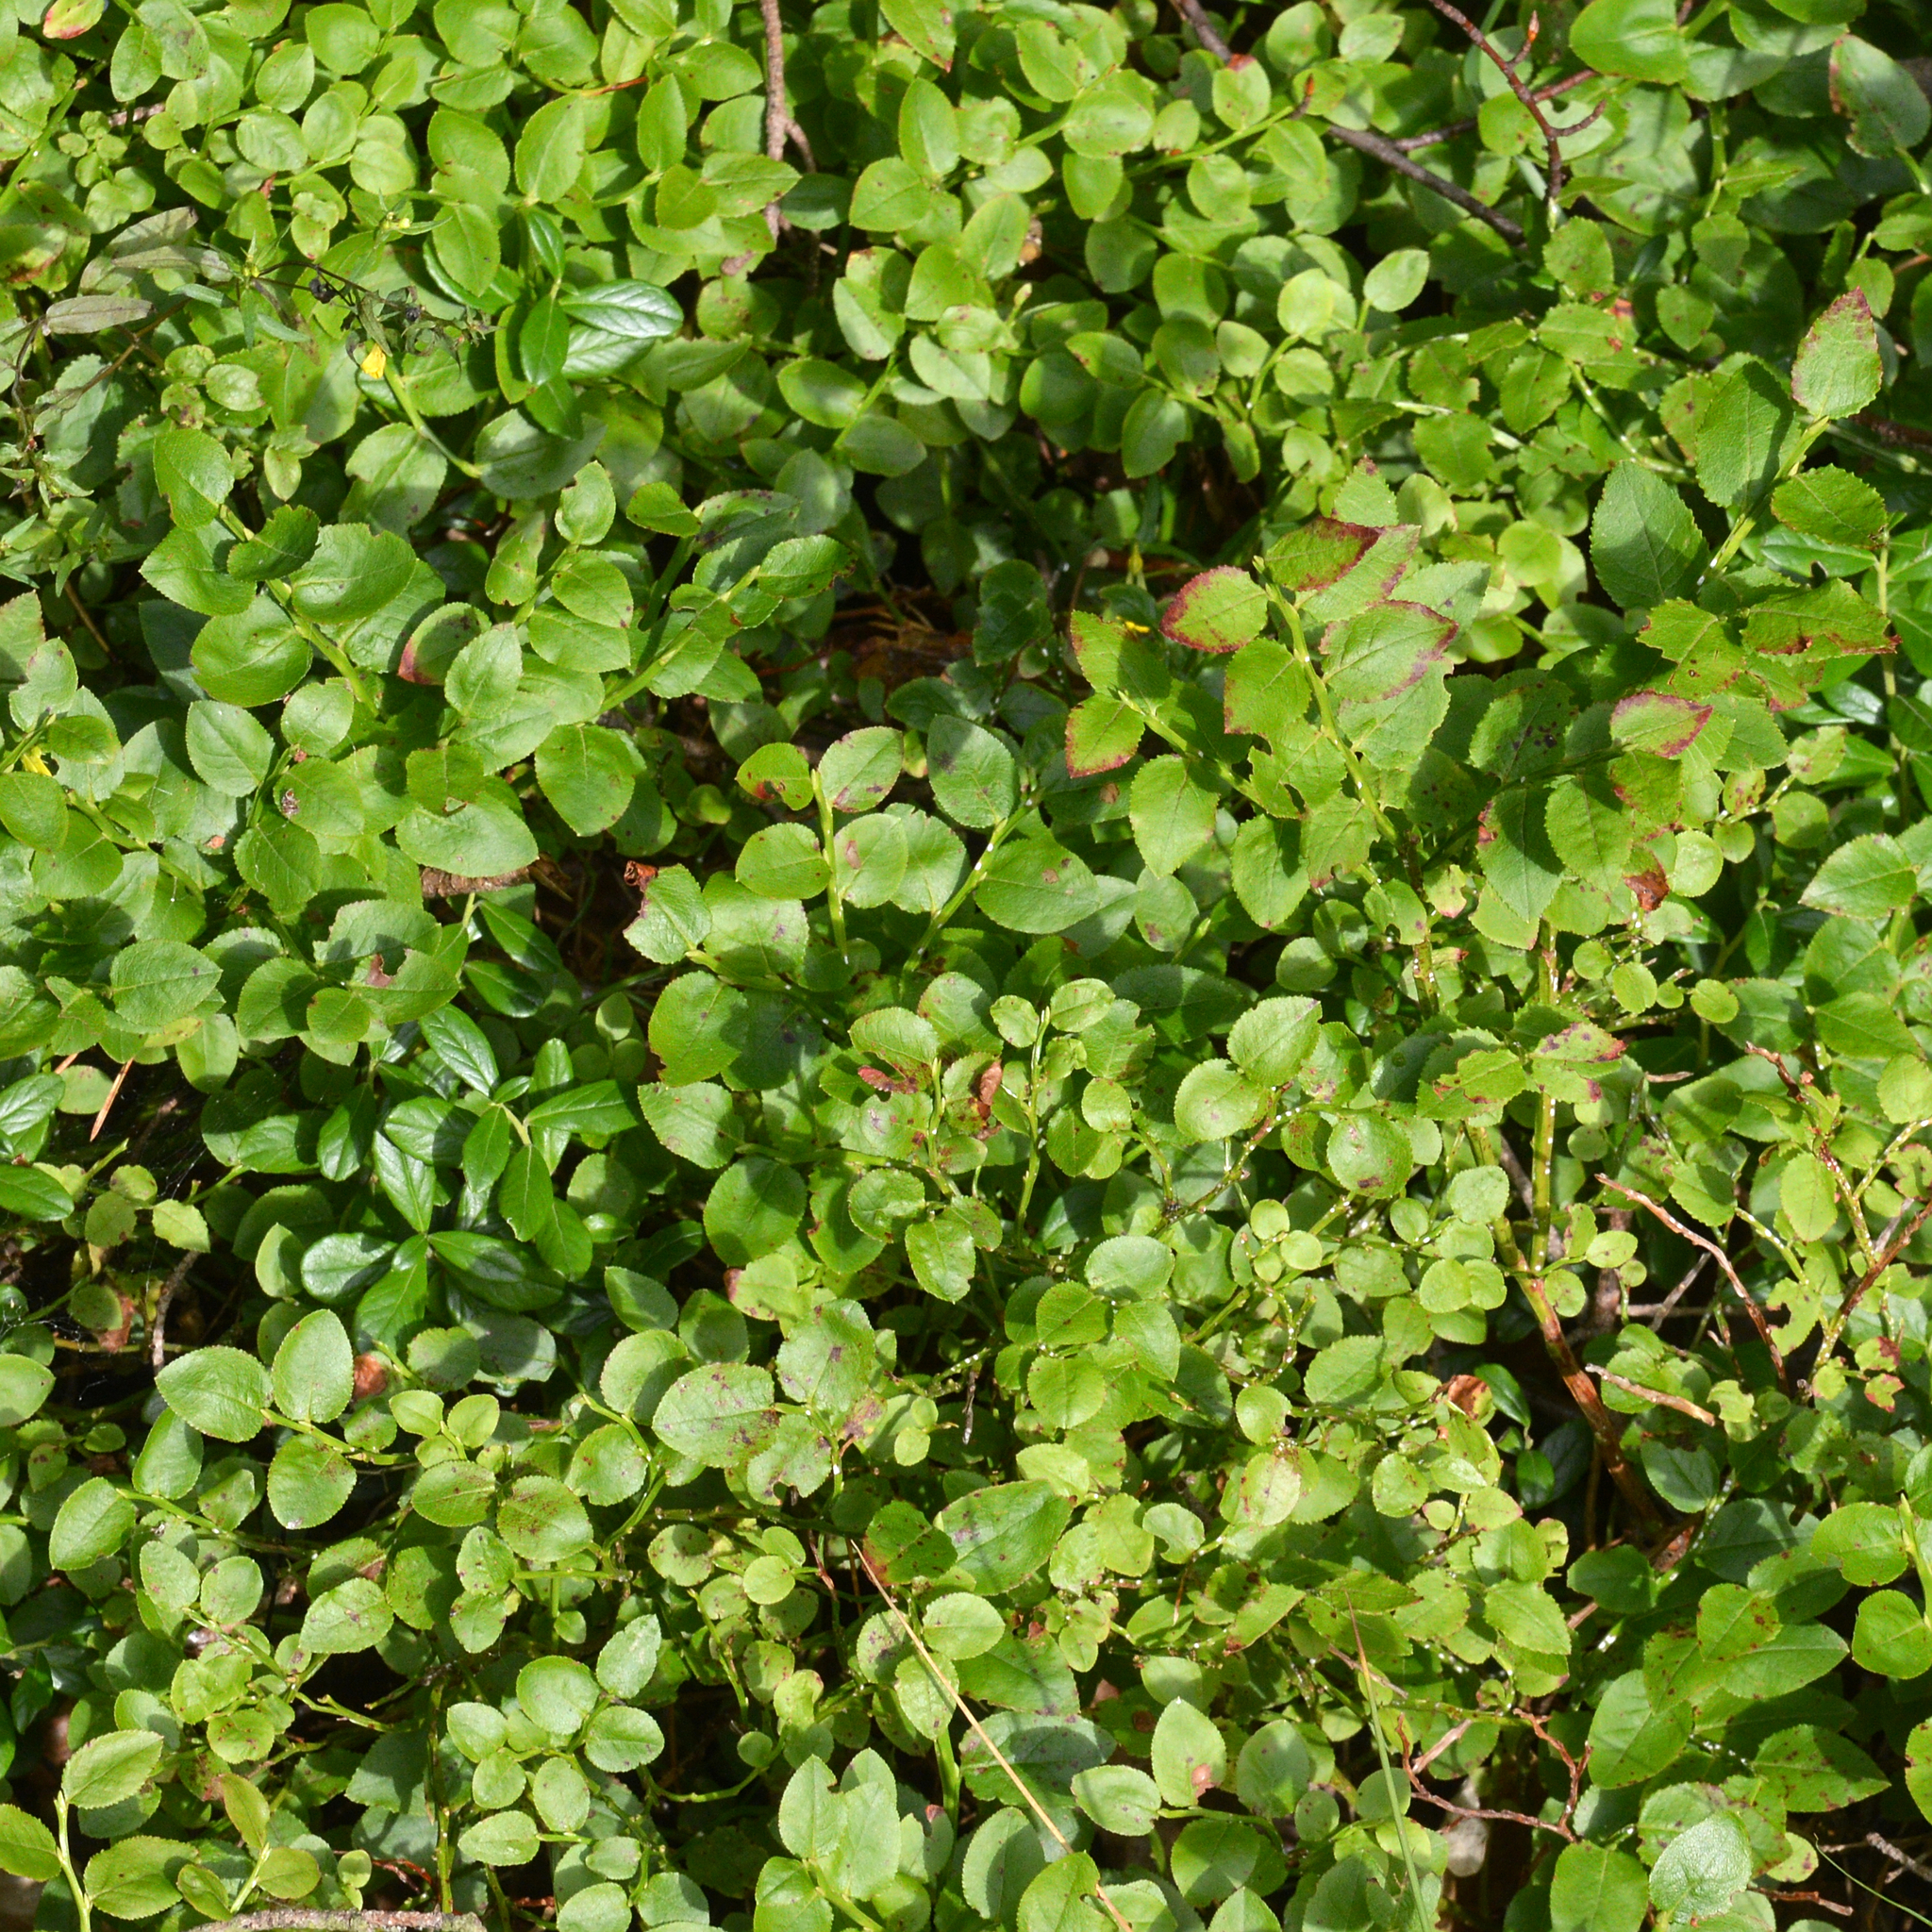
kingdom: Plantae
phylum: Tracheophyta
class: Magnoliopsida
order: Ericales
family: Ericaceae
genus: Vaccinium
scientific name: Vaccinium myrtillus
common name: Bilberry
